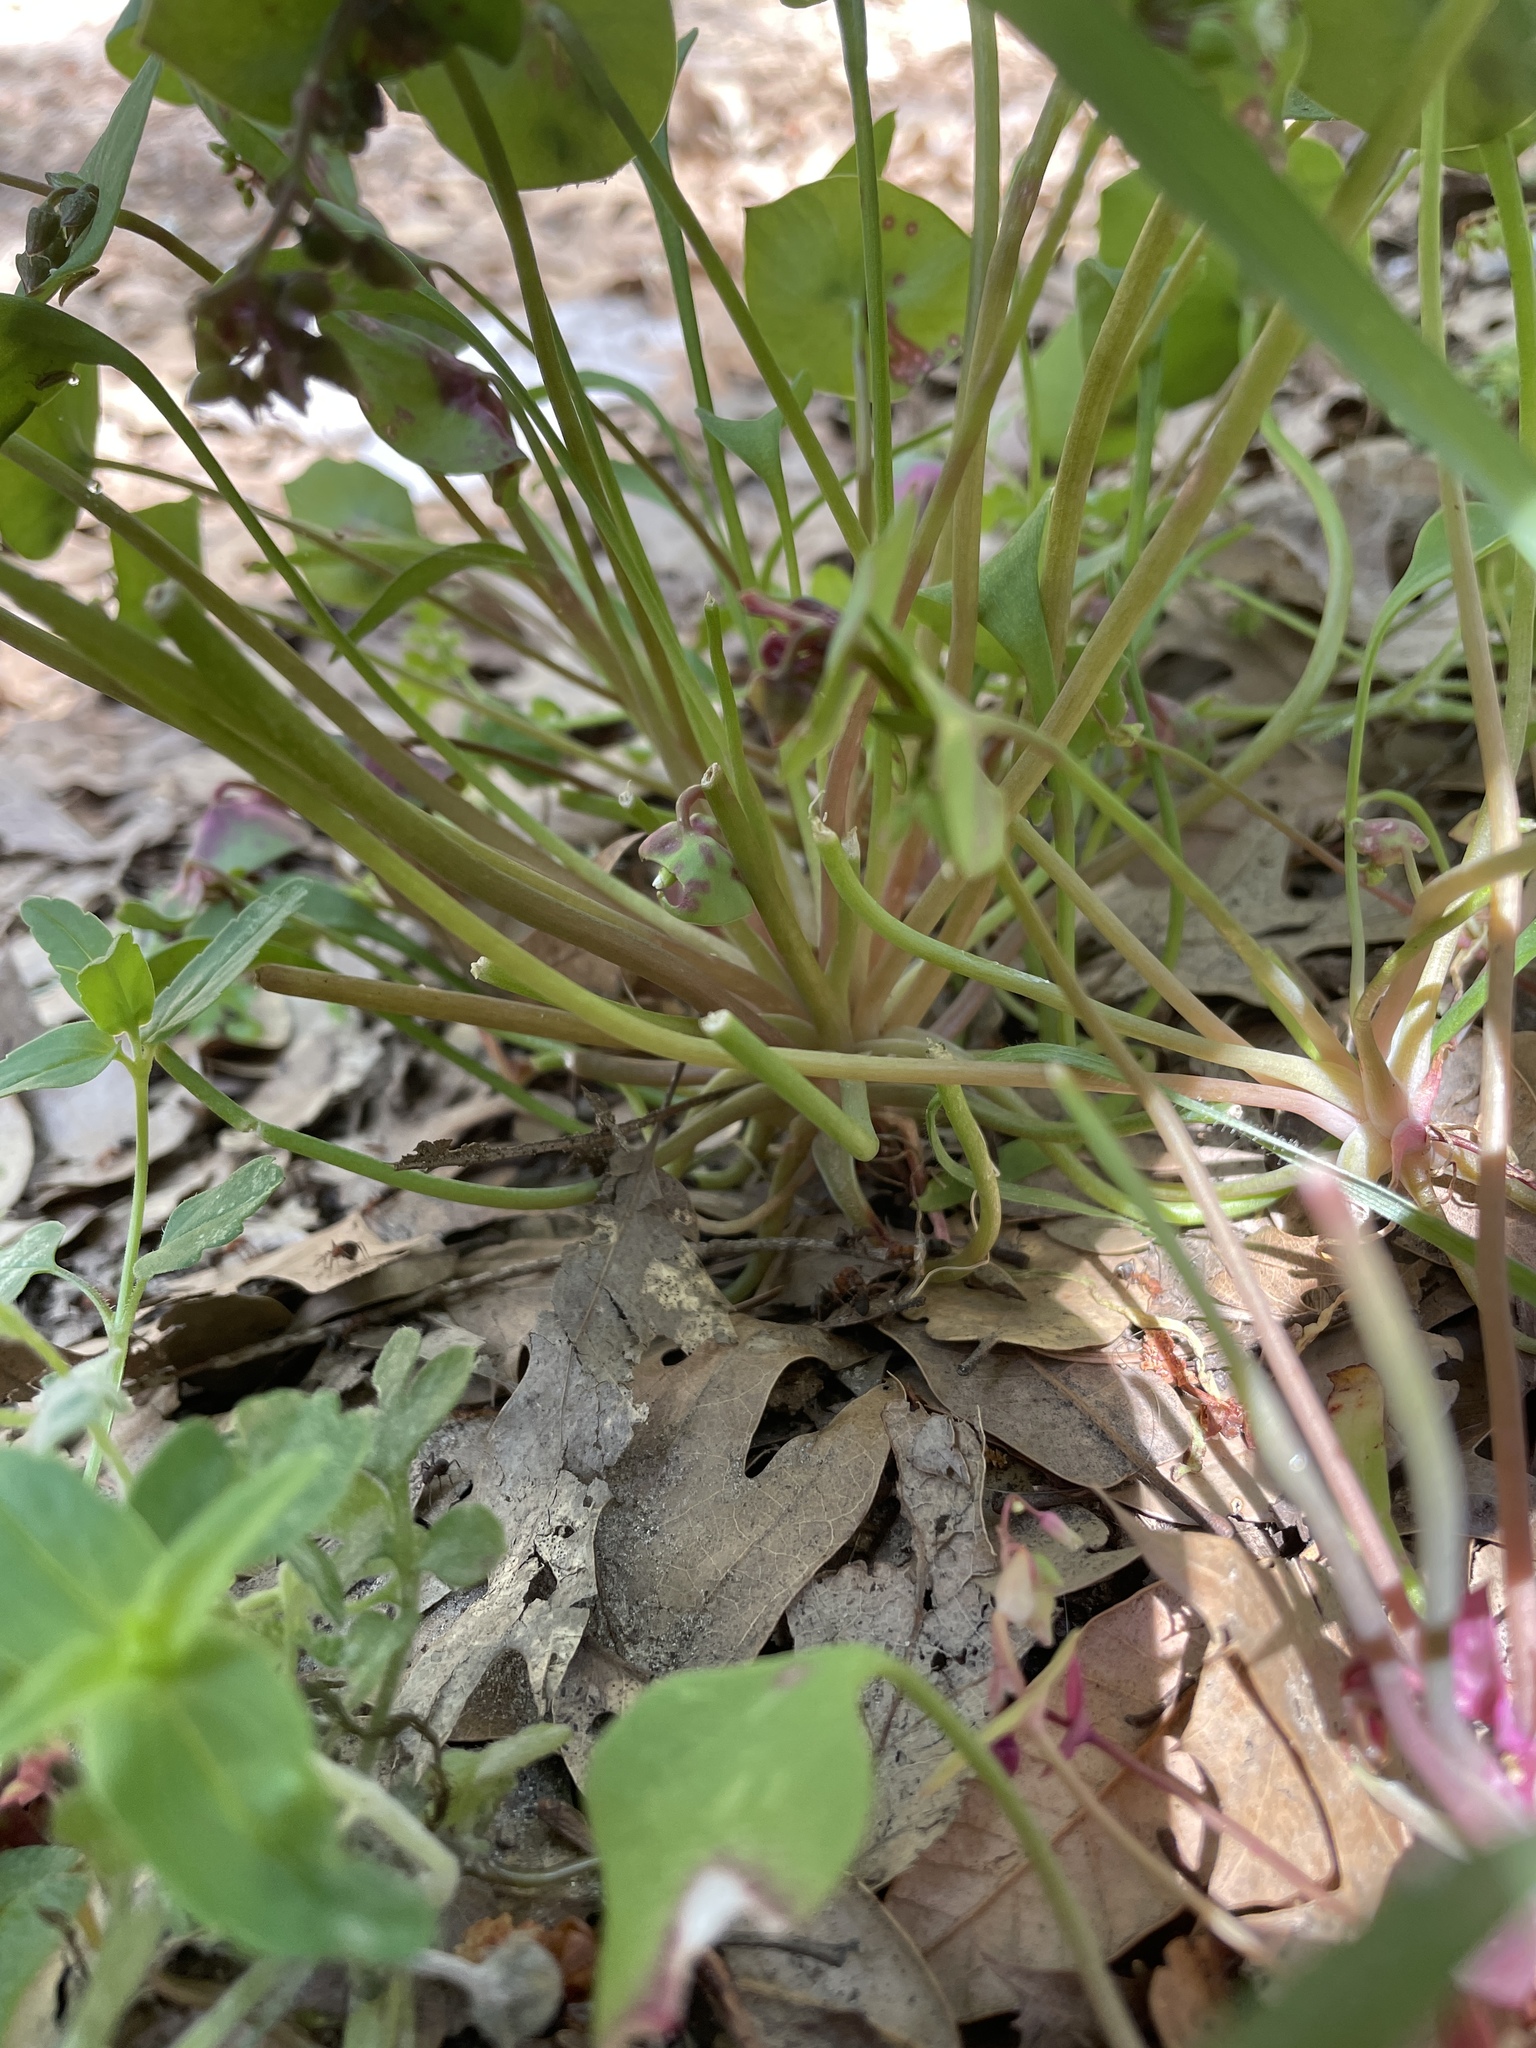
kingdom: Plantae
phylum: Tracheophyta
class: Magnoliopsida
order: Caryophyllales
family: Montiaceae
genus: Claytonia
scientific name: Claytonia perfoliata
